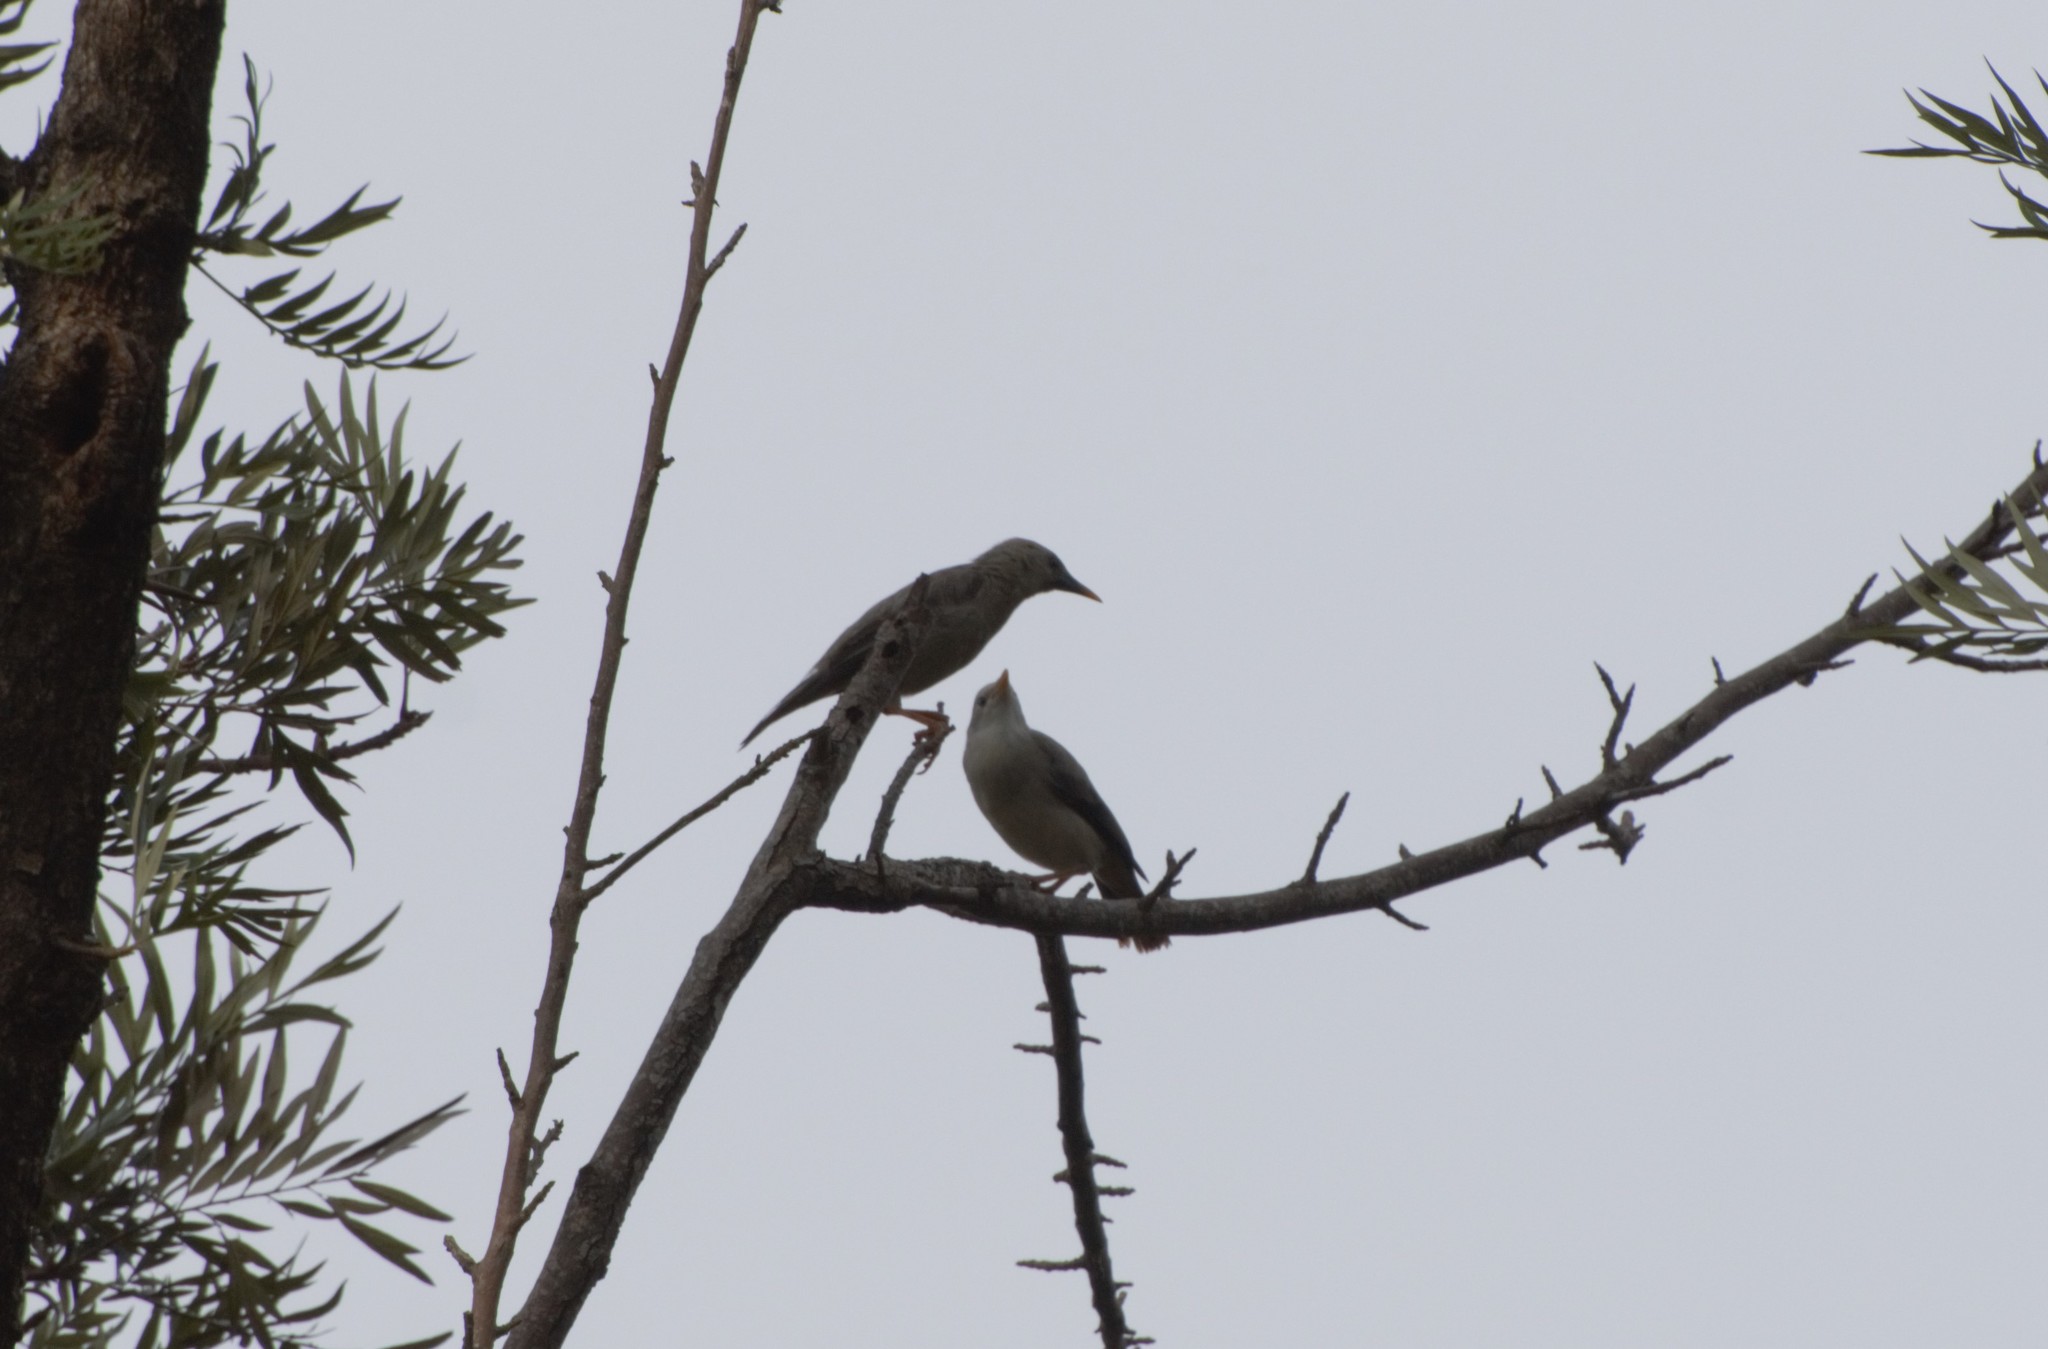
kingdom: Animalia
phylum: Chordata
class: Aves
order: Passeriformes
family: Sturnidae
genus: Sturnia
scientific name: Sturnia malabarica
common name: Chestnut-tailed starling
